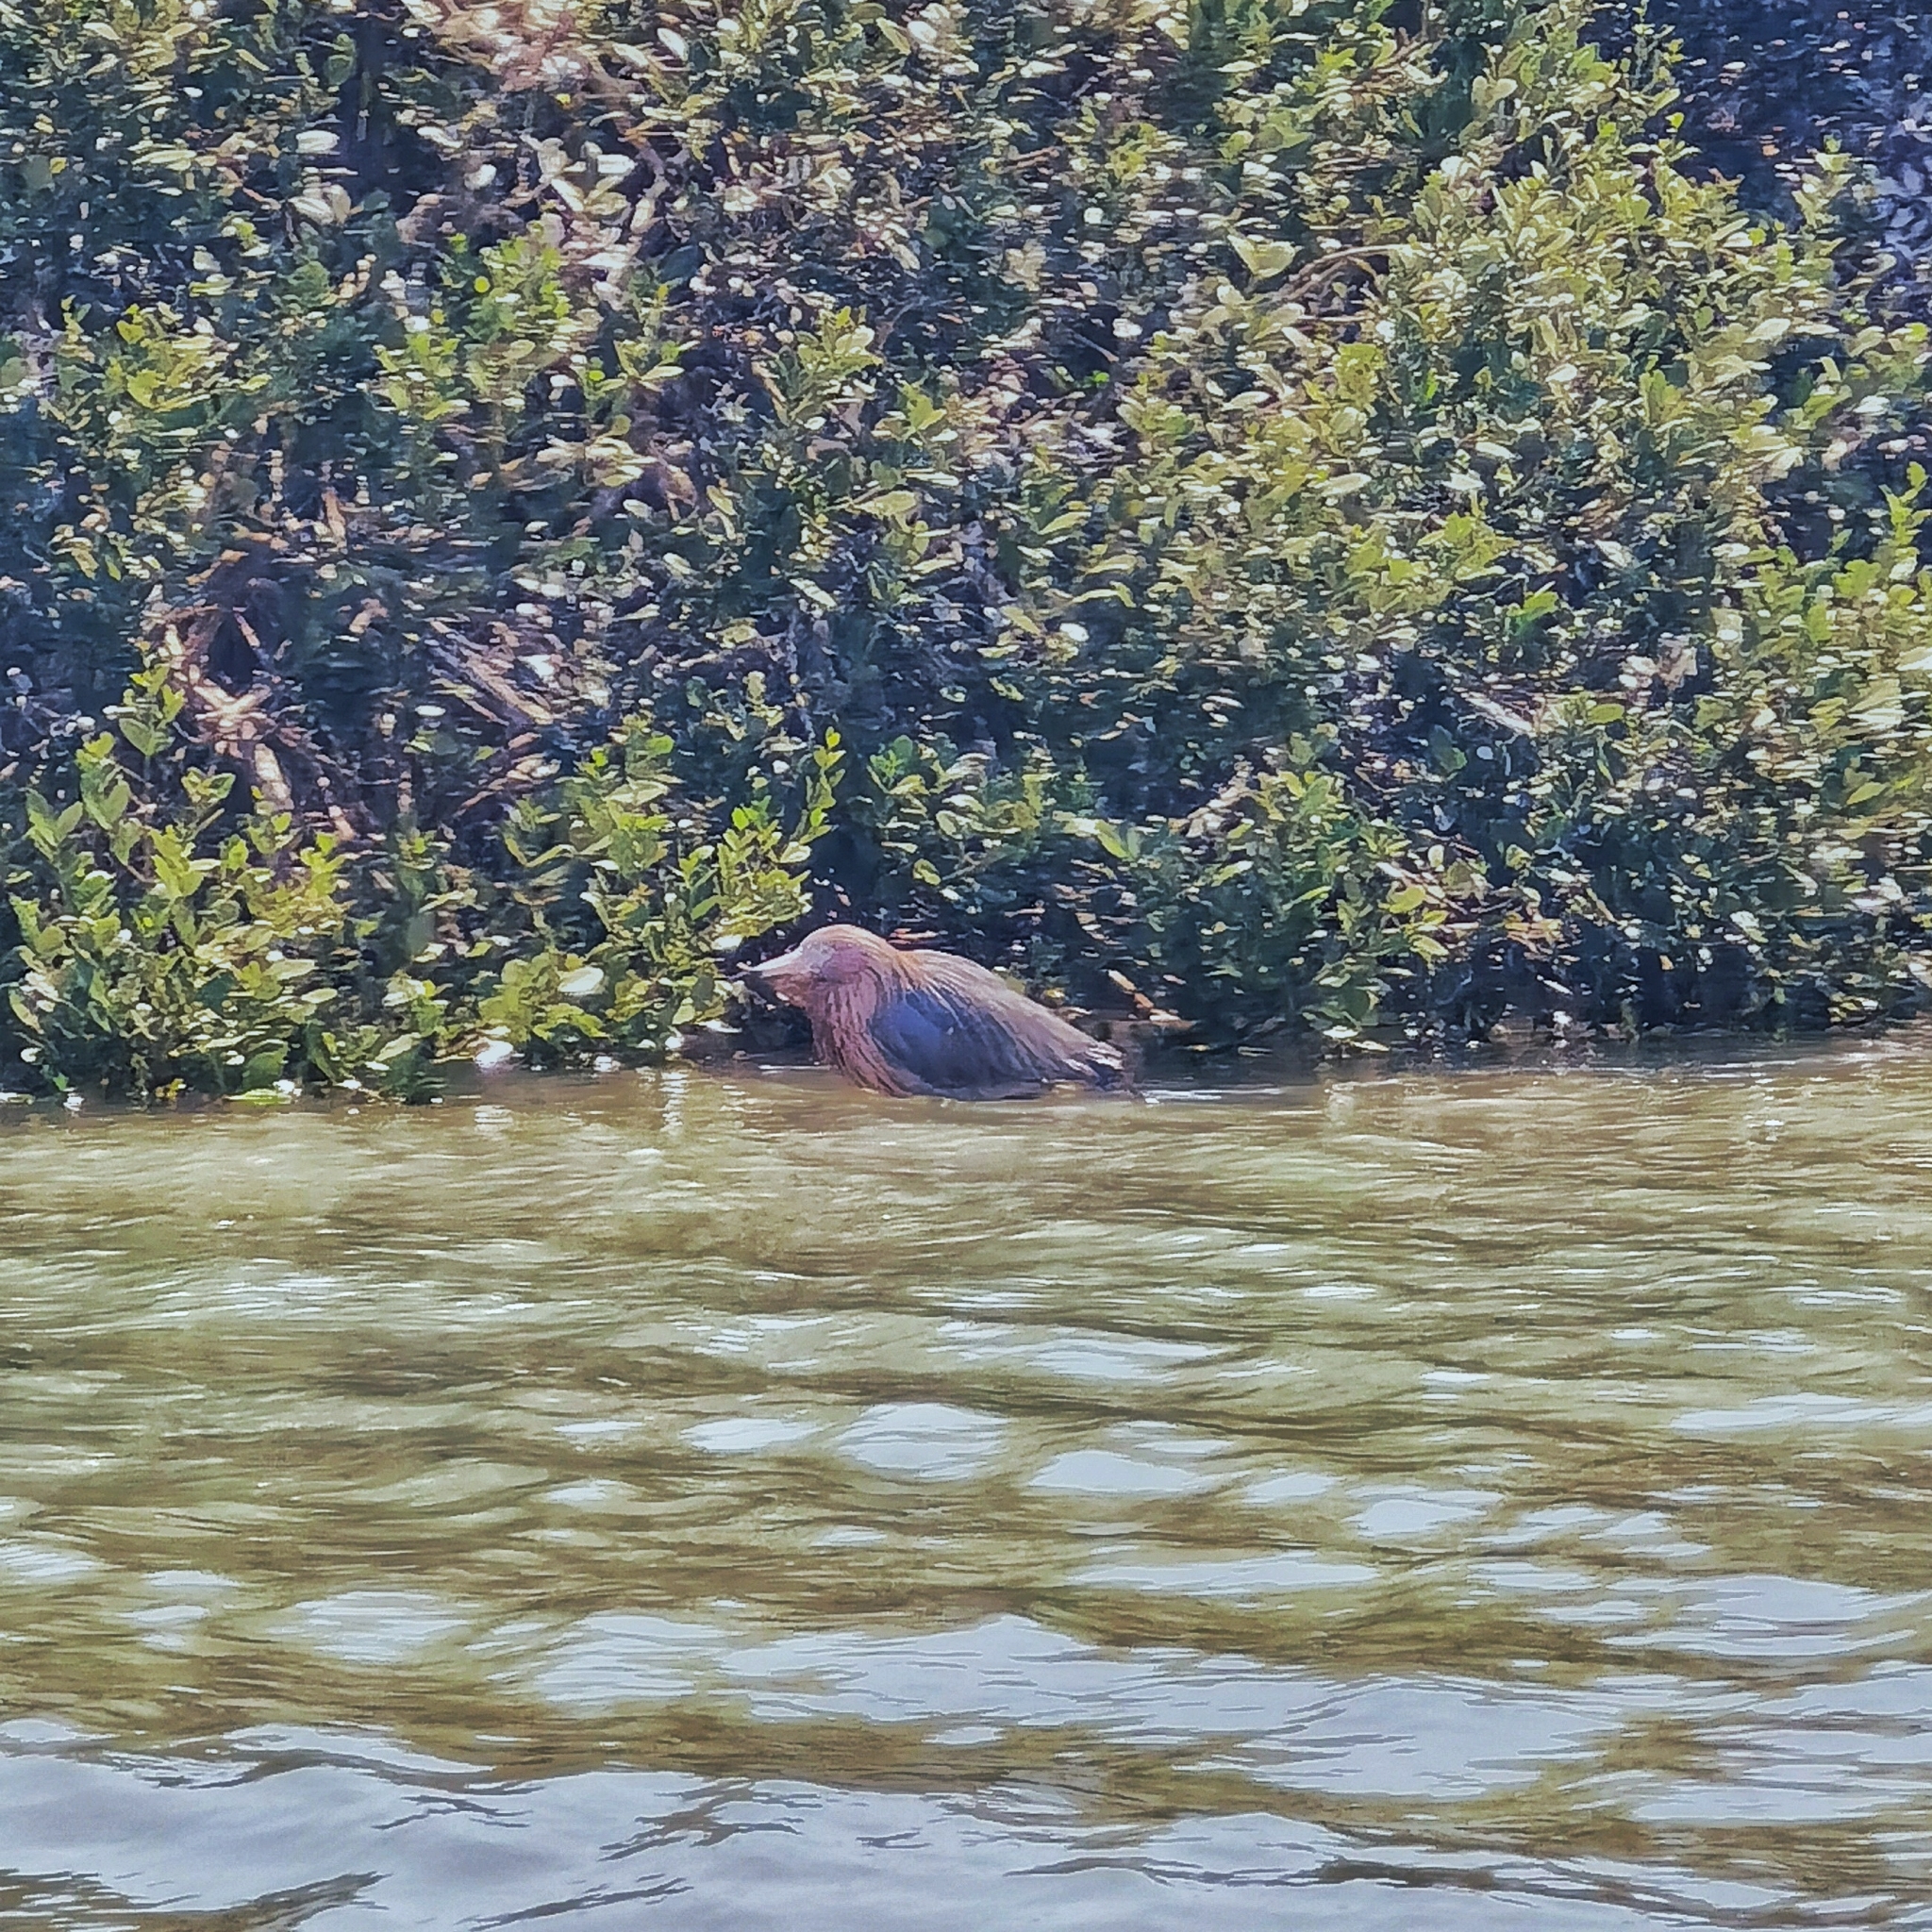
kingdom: Animalia
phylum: Chordata
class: Aves
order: Pelecaniformes
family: Ardeidae
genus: Egretta
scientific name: Egretta rufescens
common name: Reddish egret
